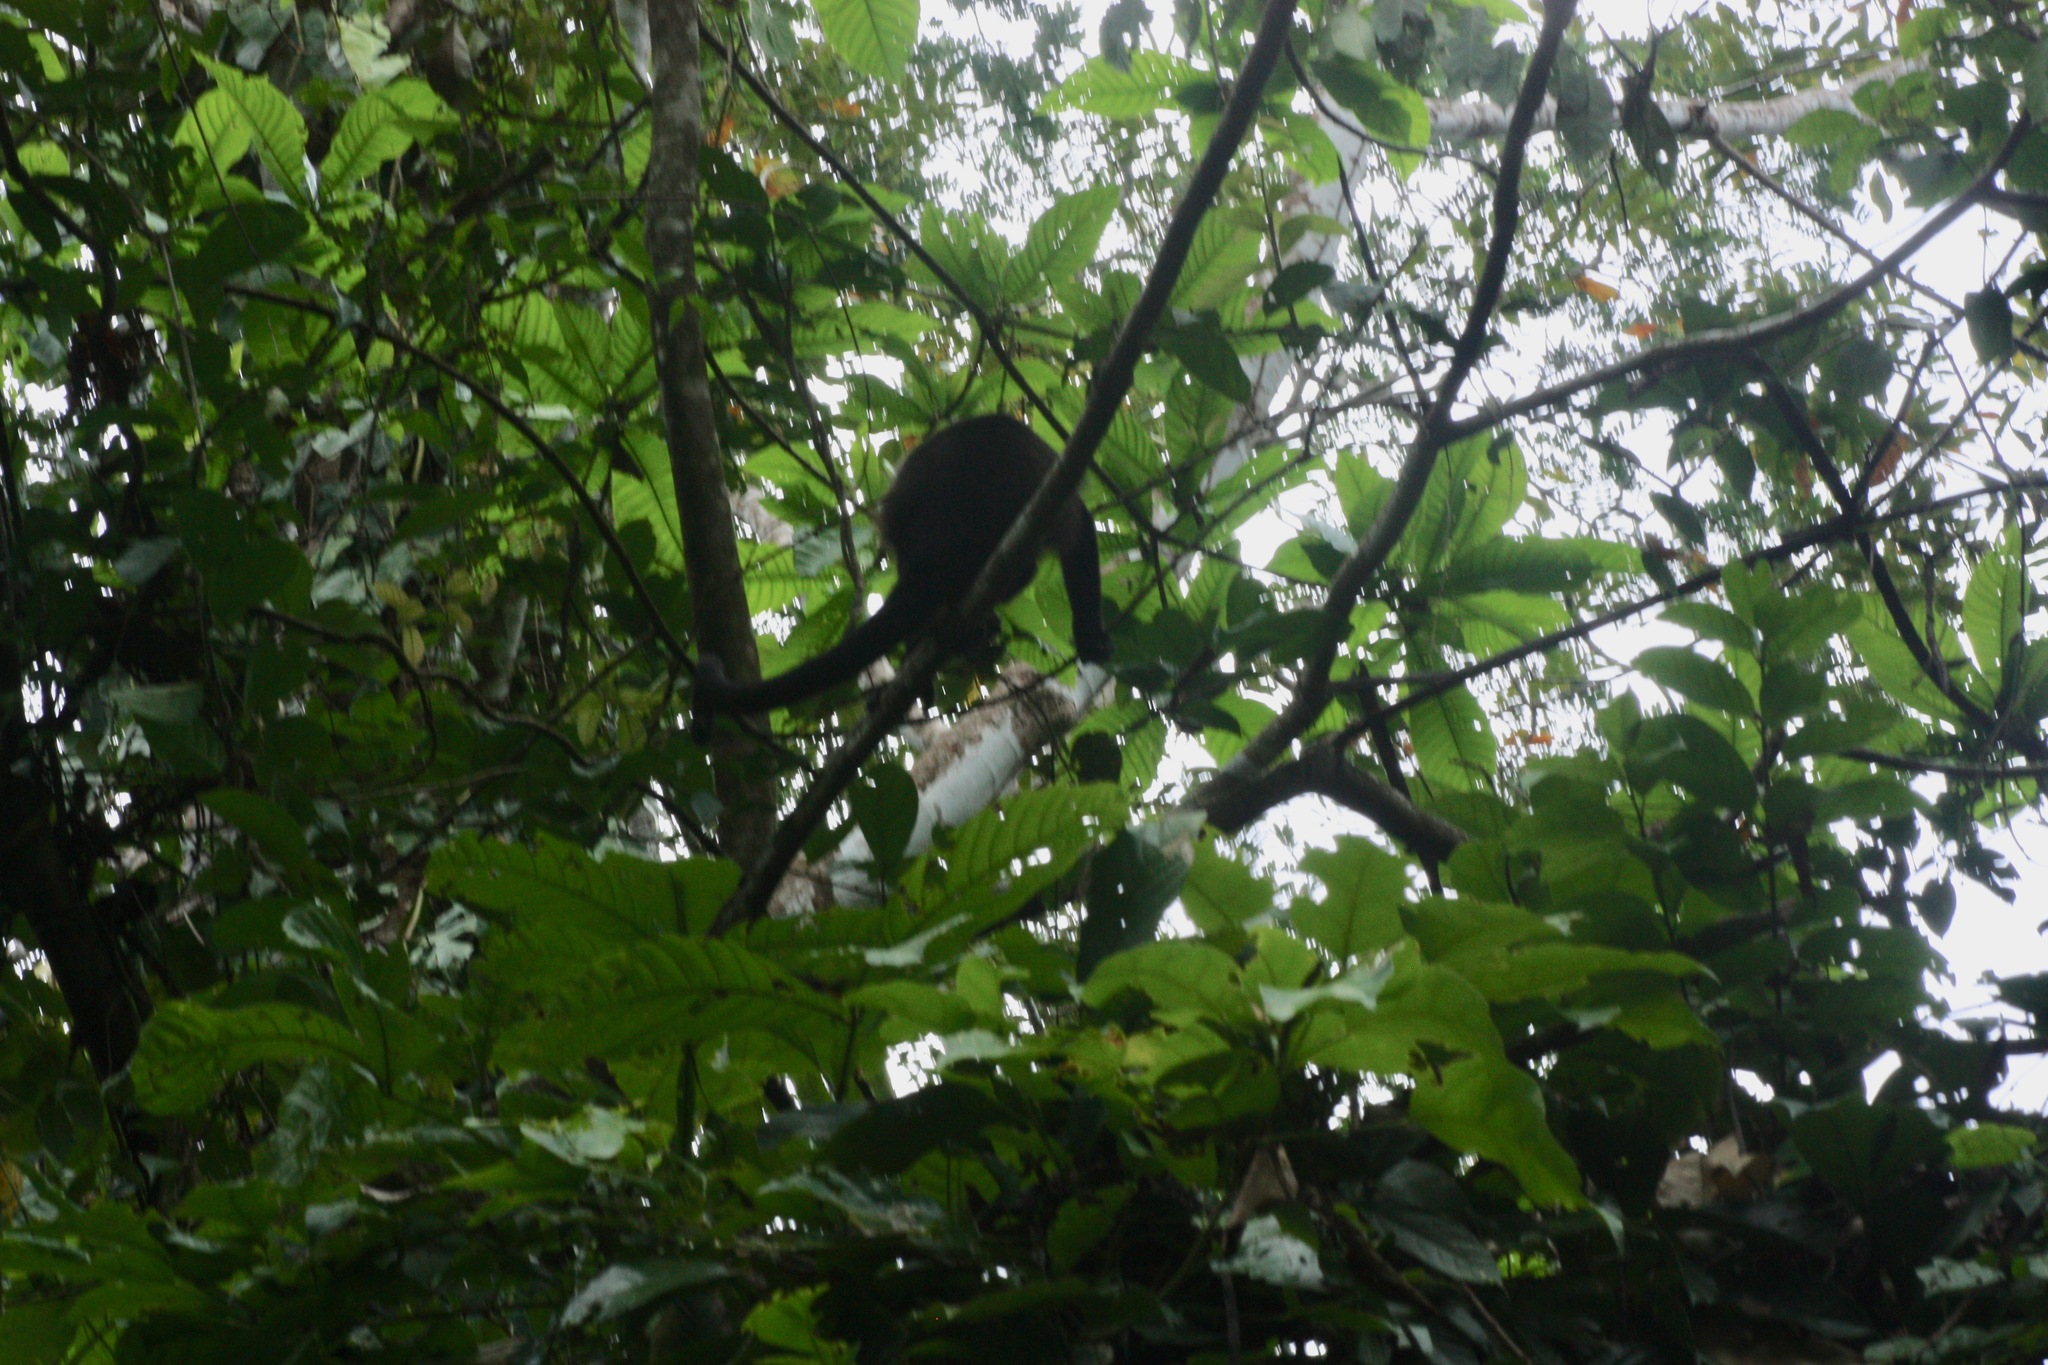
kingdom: Animalia
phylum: Chordata
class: Mammalia
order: Primates
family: Atelidae
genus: Alouatta
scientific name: Alouatta palliata
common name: Mantled howler
